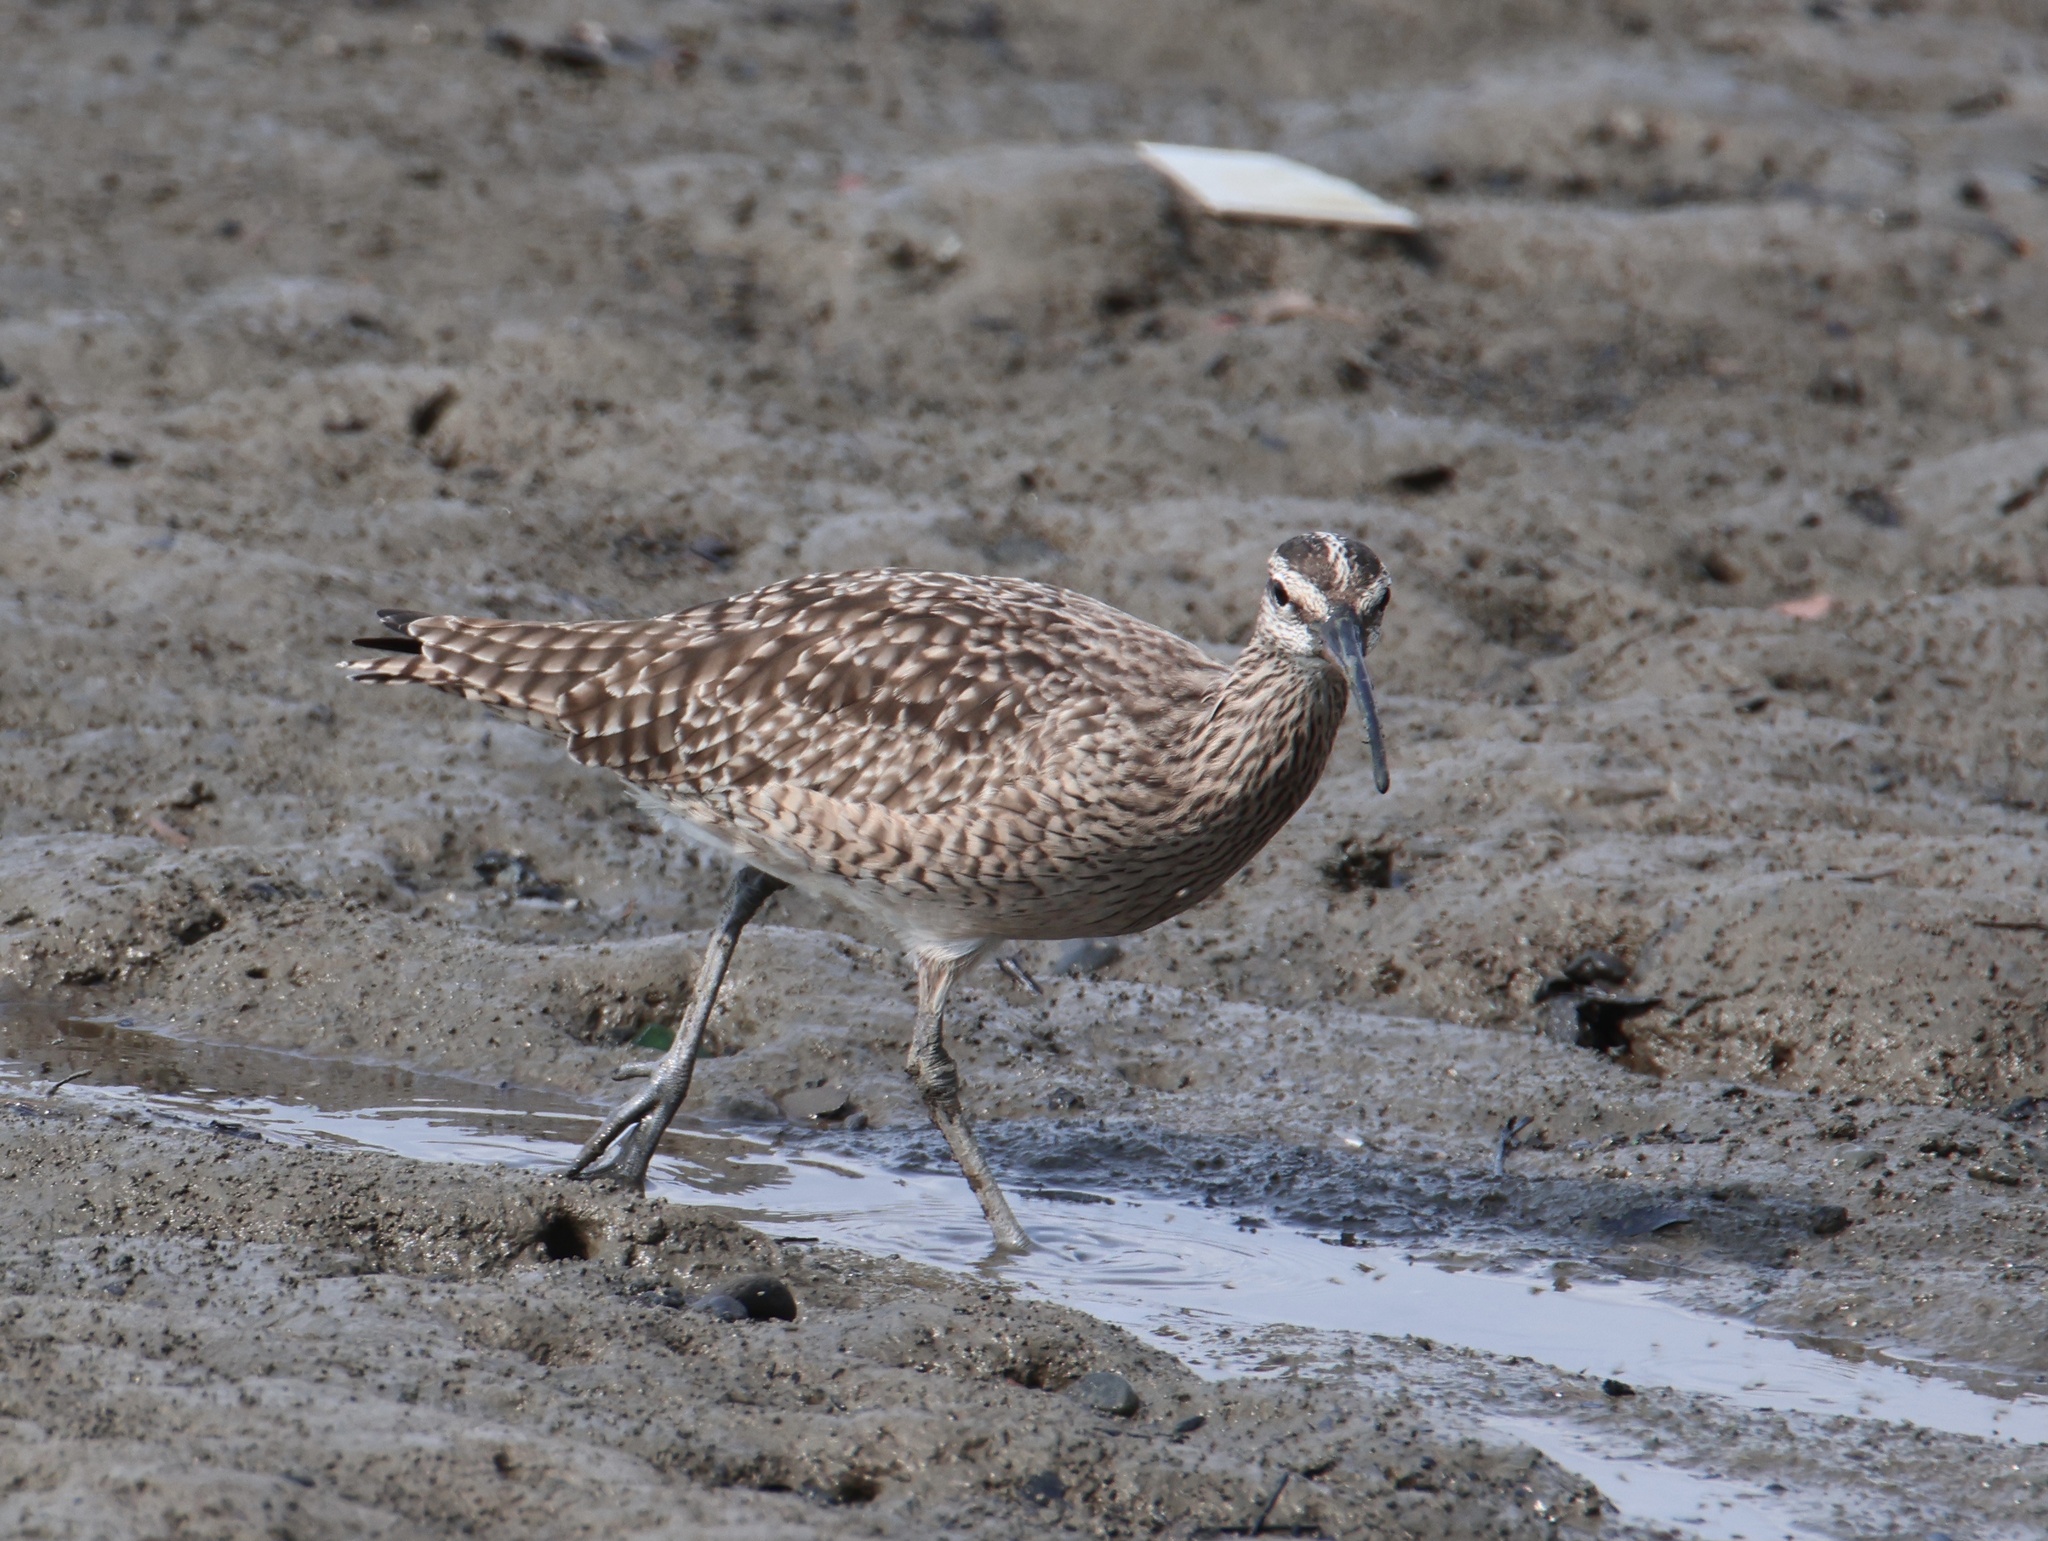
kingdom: Animalia
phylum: Chordata
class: Aves
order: Charadriiformes
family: Scolopacidae
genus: Numenius
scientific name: Numenius phaeopus
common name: Whimbrel
